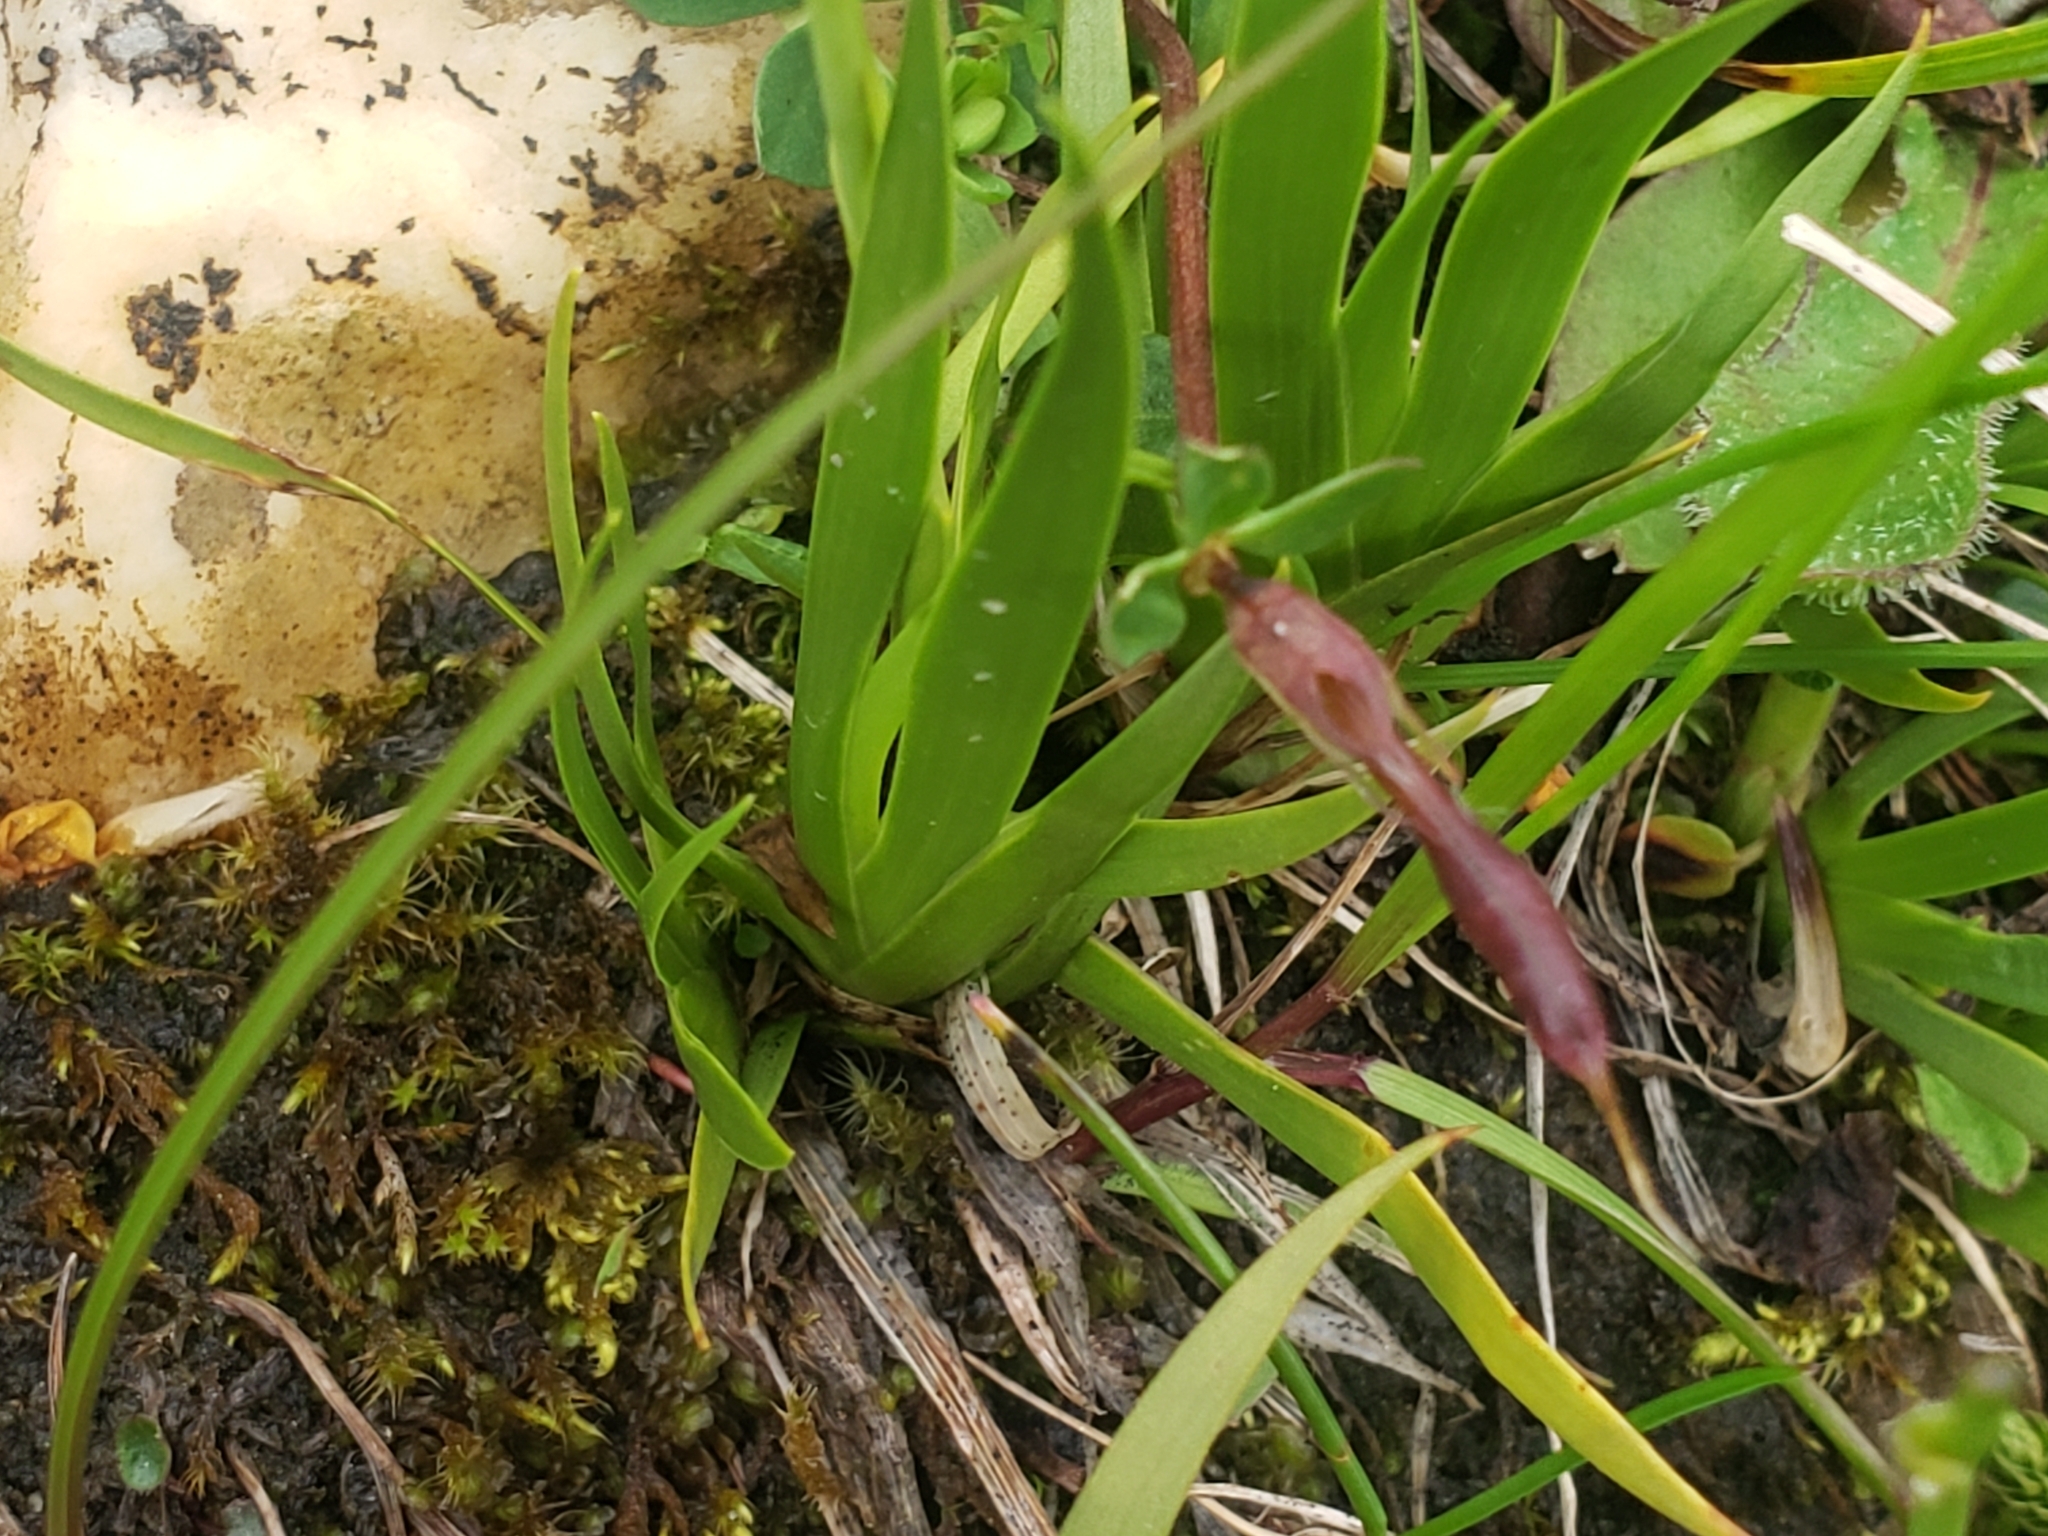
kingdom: Plantae
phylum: Tracheophyta
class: Liliopsida
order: Alismatales
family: Tofieldiaceae
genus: Tofieldia
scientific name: Tofieldia calyculata
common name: German-asphodel
